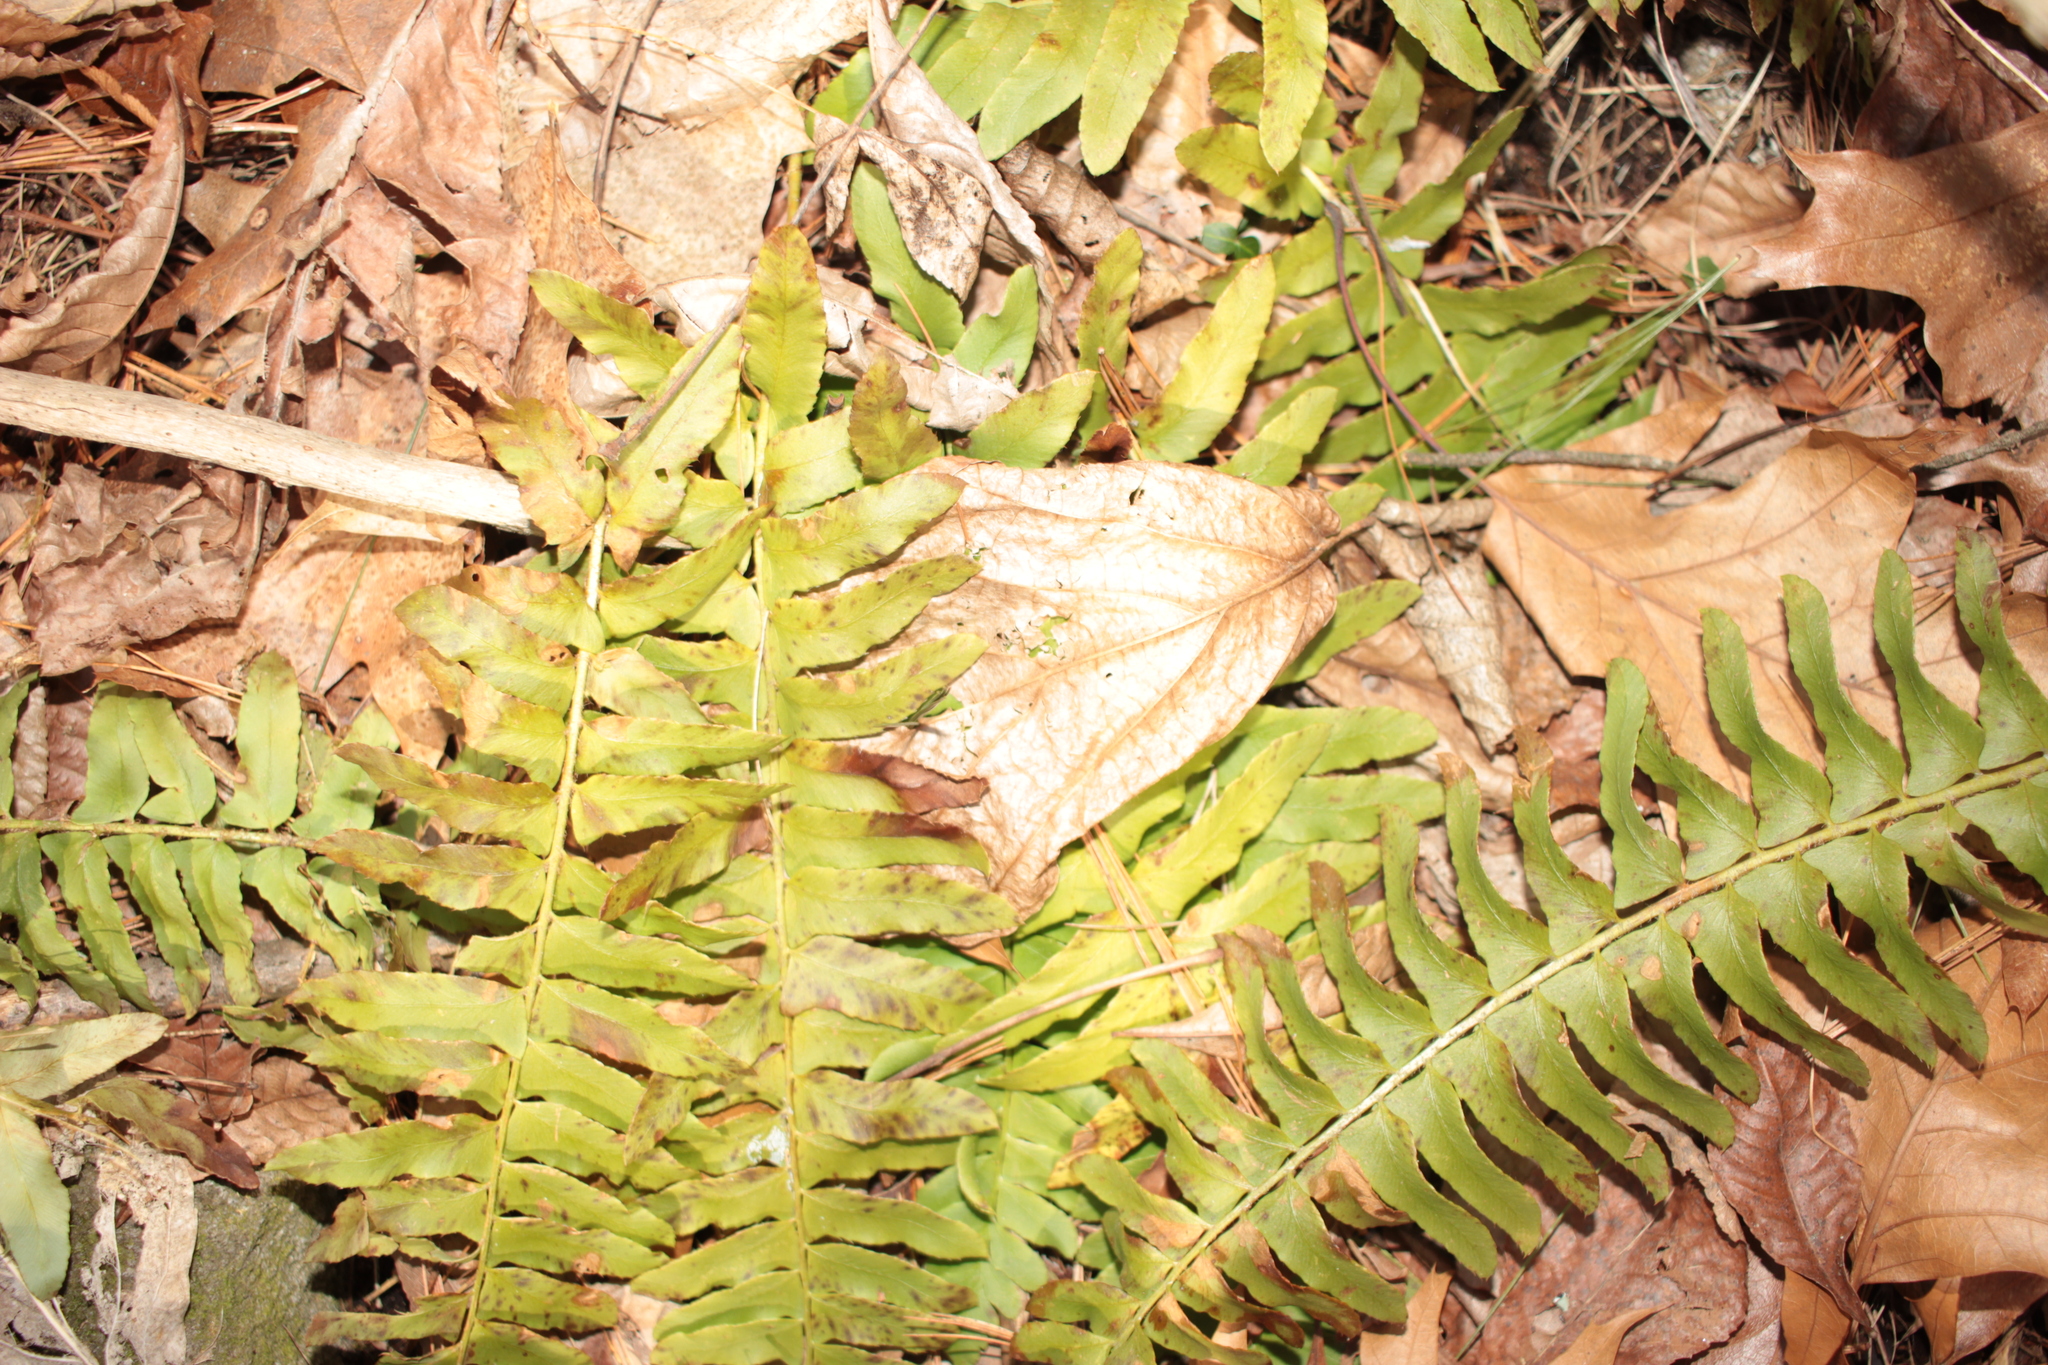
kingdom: Plantae
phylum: Tracheophyta
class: Polypodiopsida
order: Polypodiales
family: Dryopteridaceae
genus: Polystichum
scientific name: Polystichum acrostichoides
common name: Christmas fern
